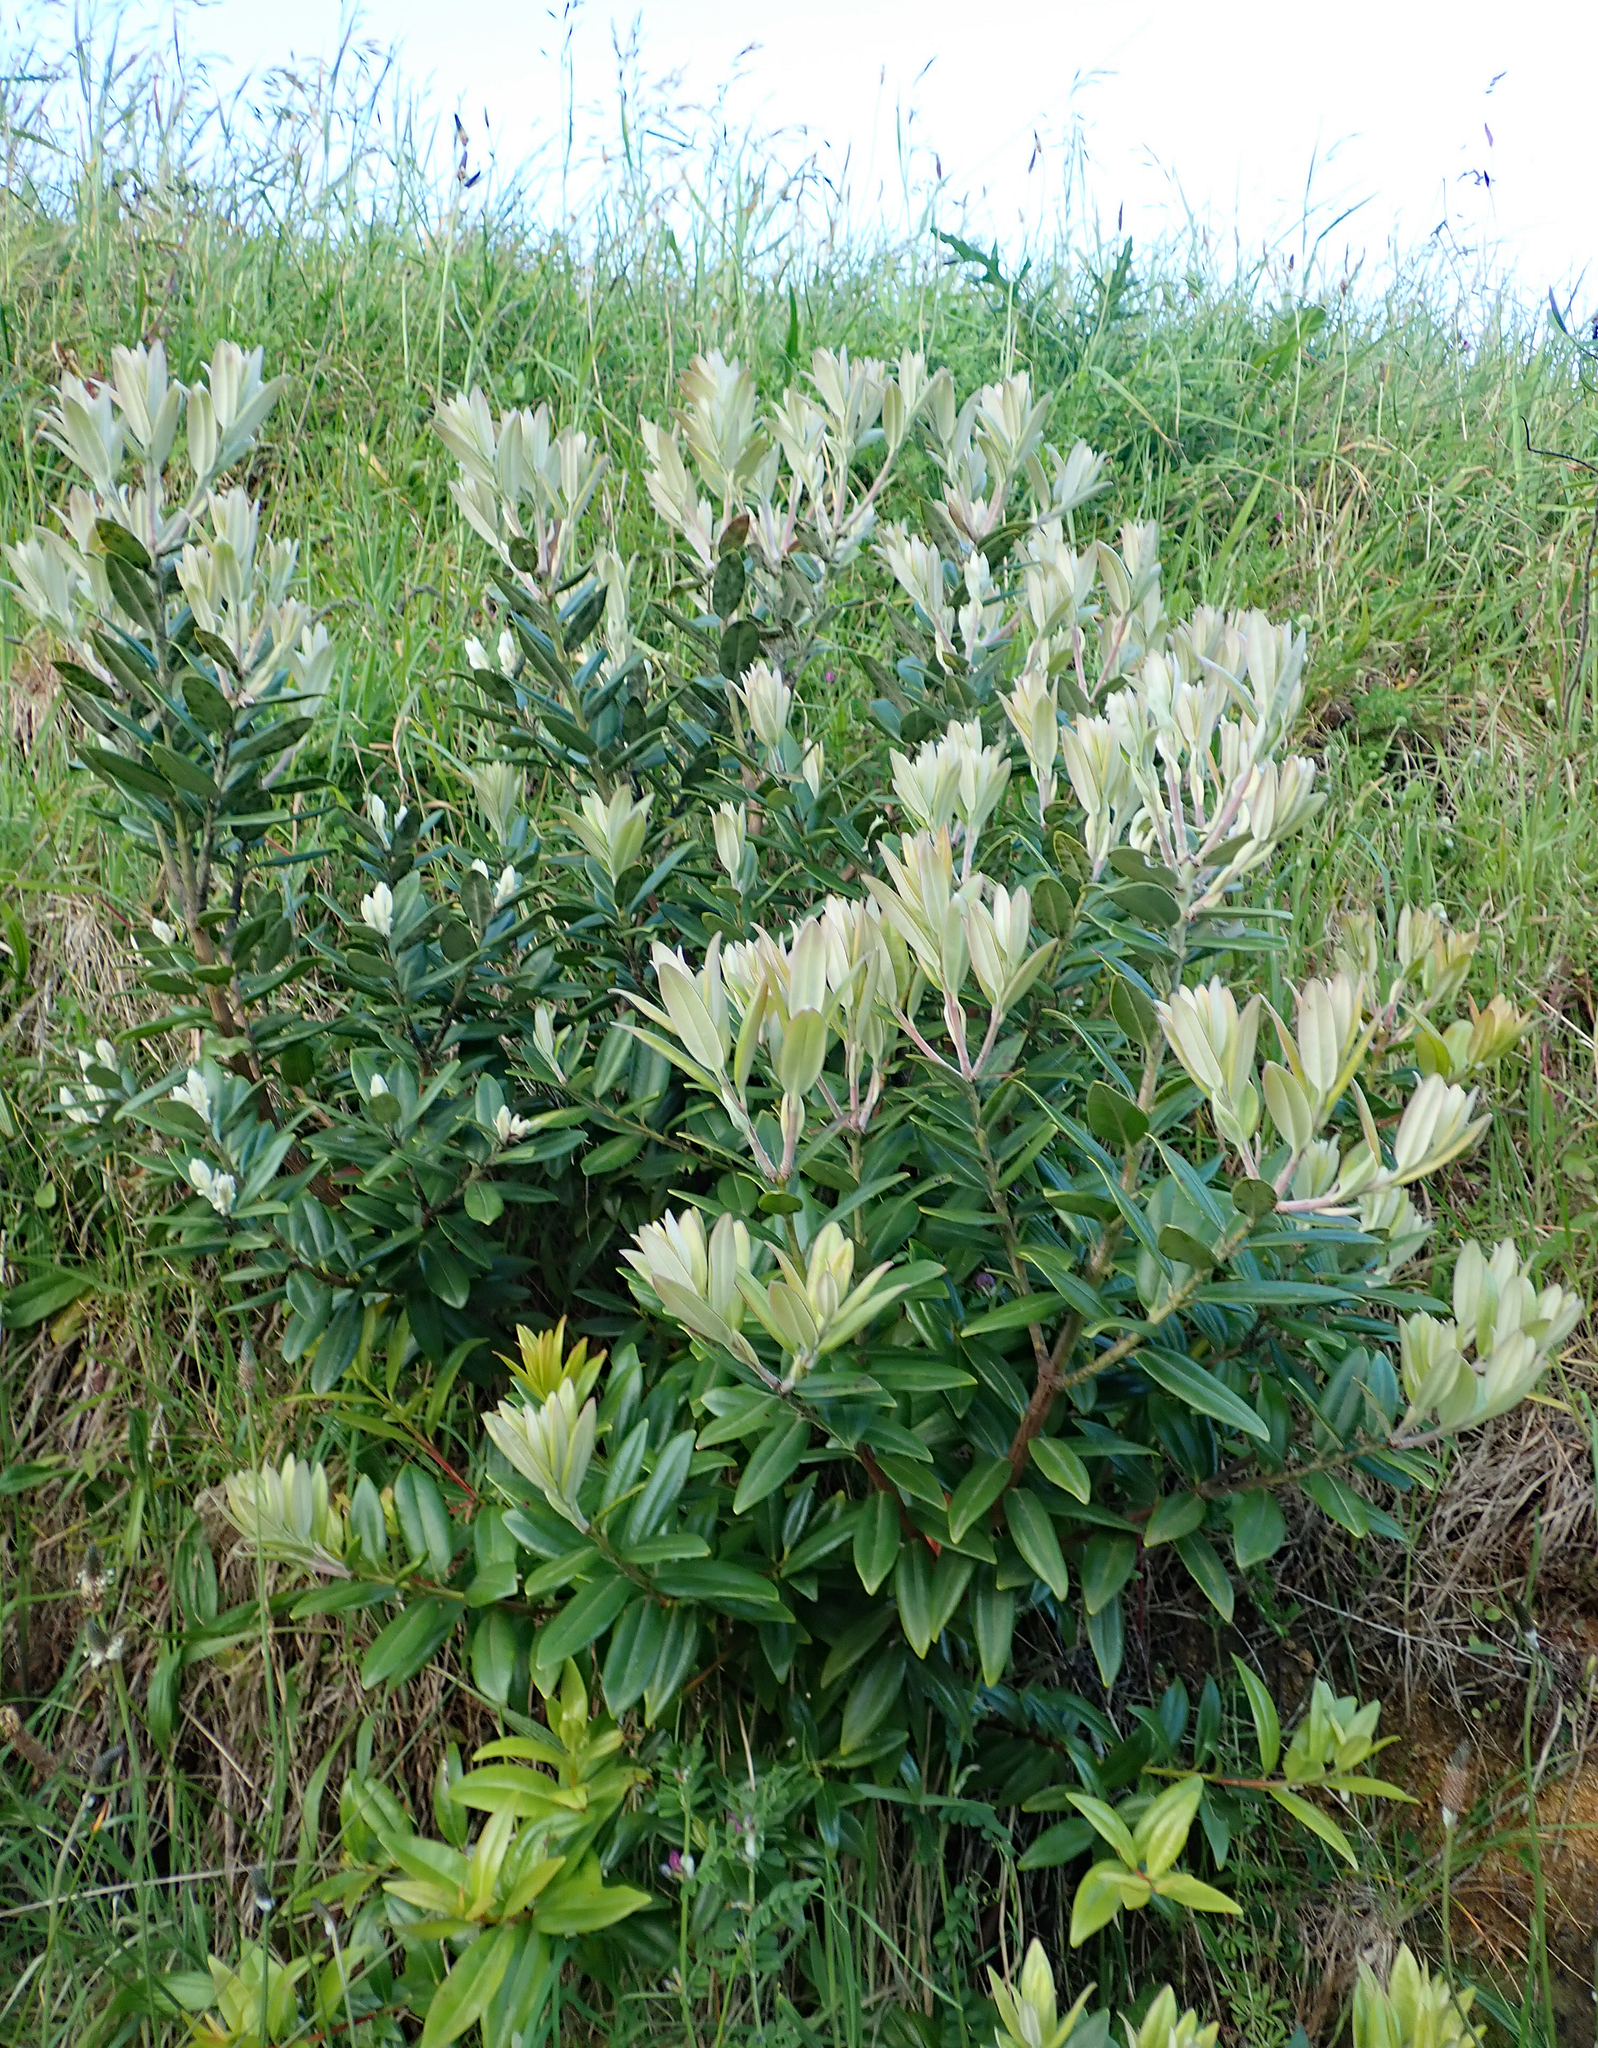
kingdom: Plantae
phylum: Tracheophyta
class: Magnoliopsida
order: Myrtales
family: Myrtaceae
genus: Metrosideros
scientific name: Metrosideros excelsa
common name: New zealand christmastree
